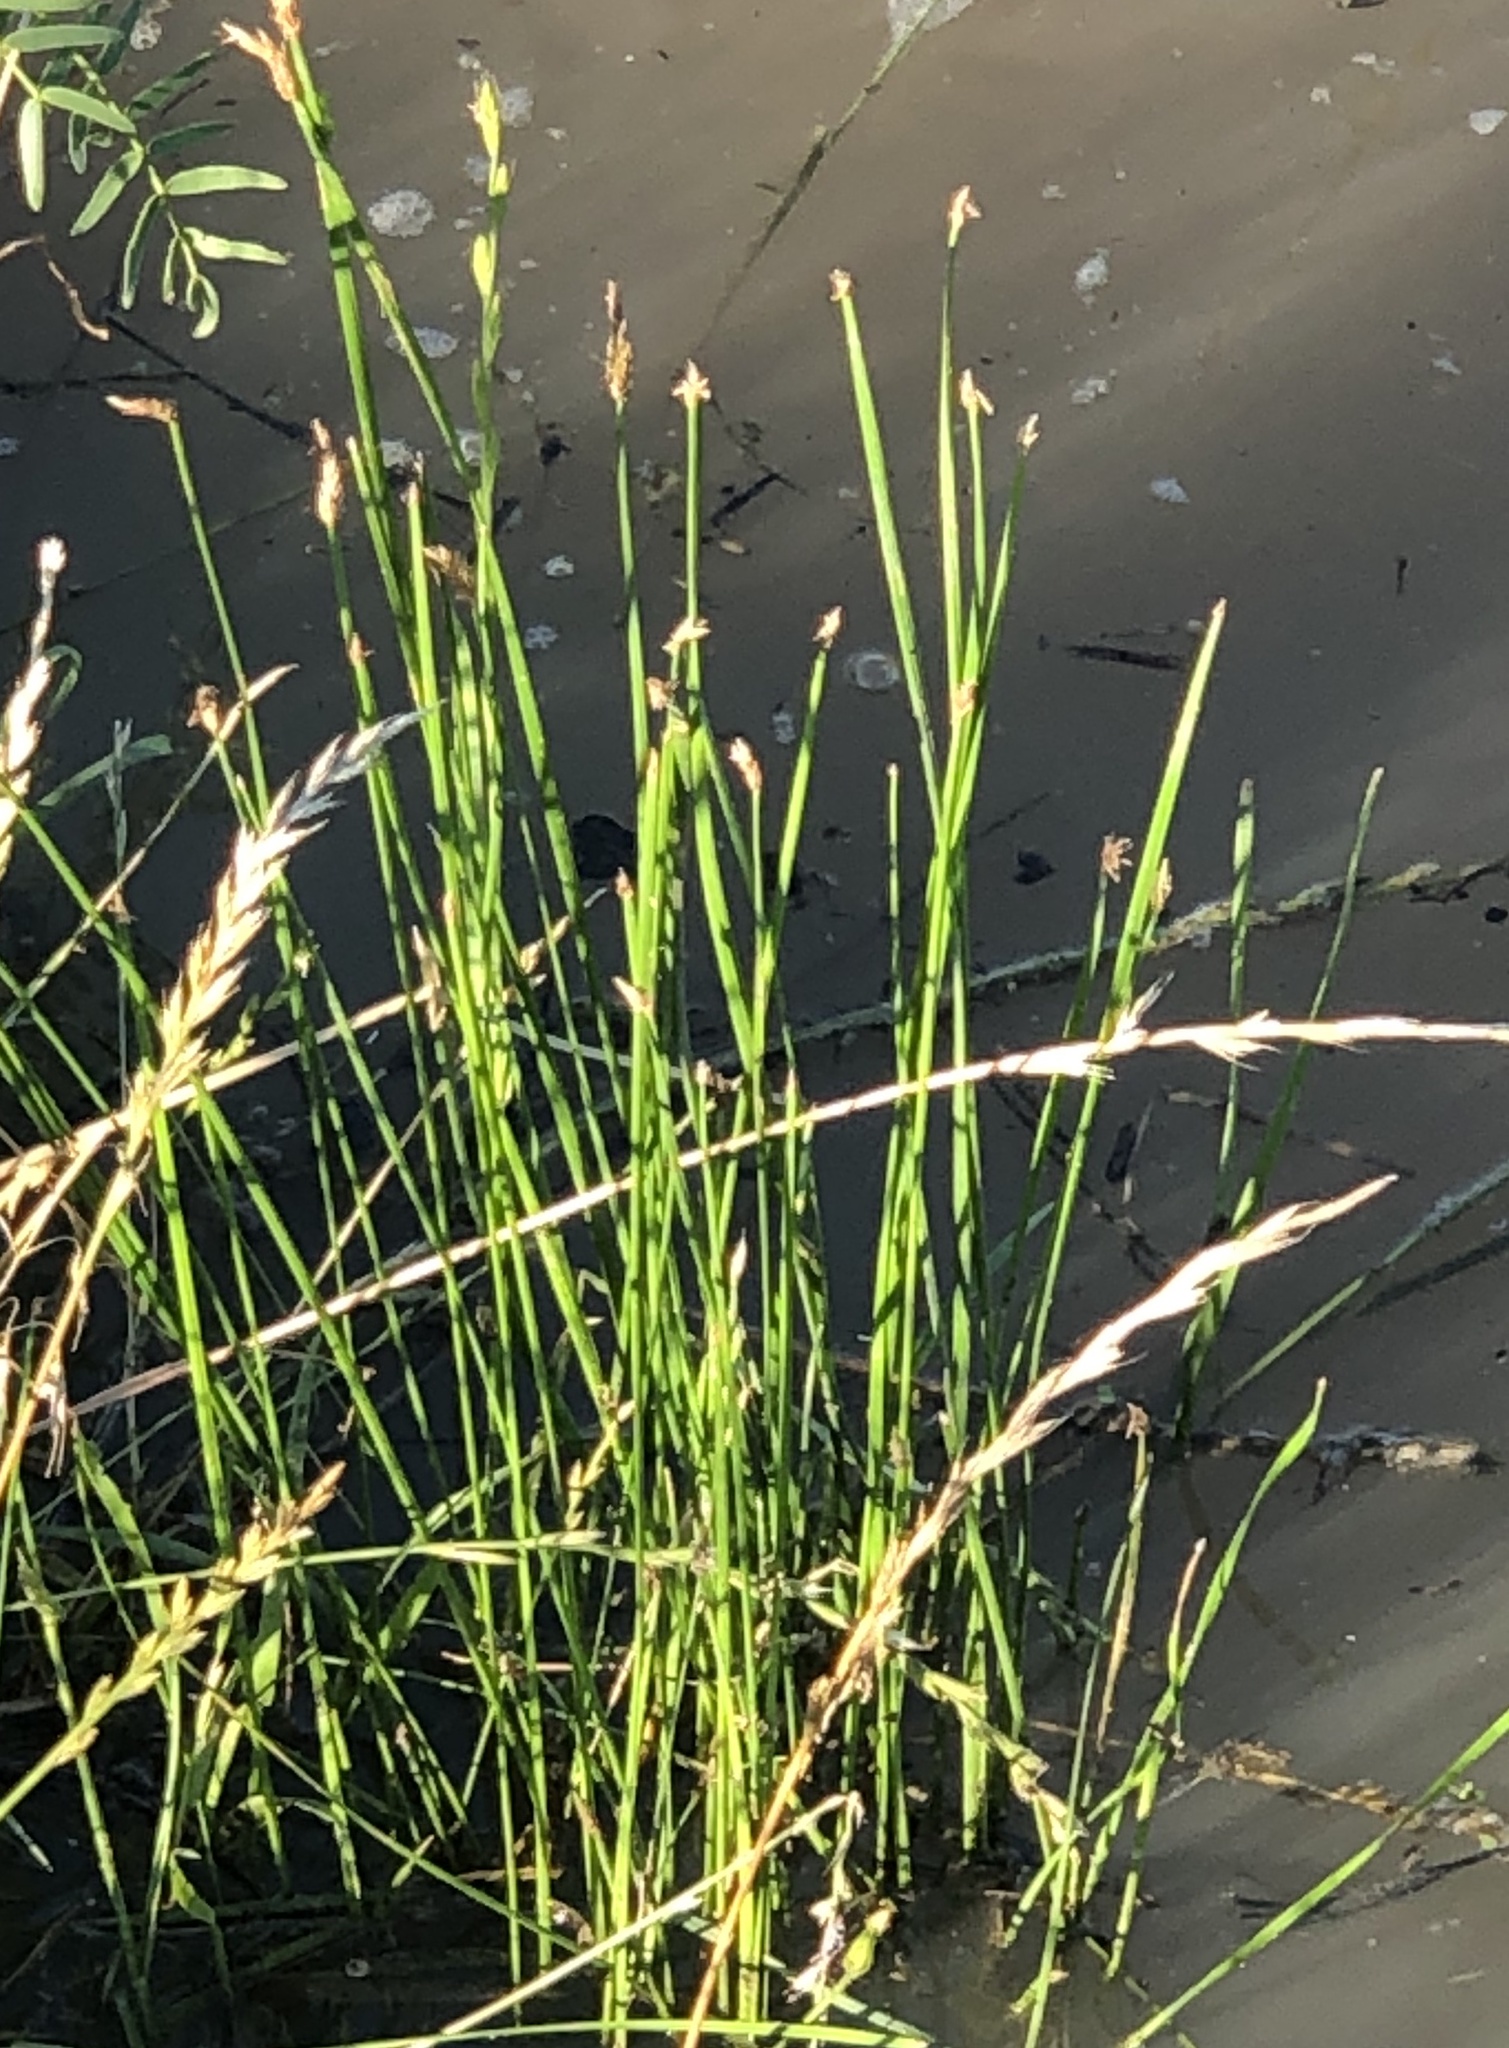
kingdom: Plantae
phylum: Tracheophyta
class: Liliopsida
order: Poales
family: Cyperaceae
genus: Eleocharis
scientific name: Eleocharis palustris
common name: Common spike-rush
